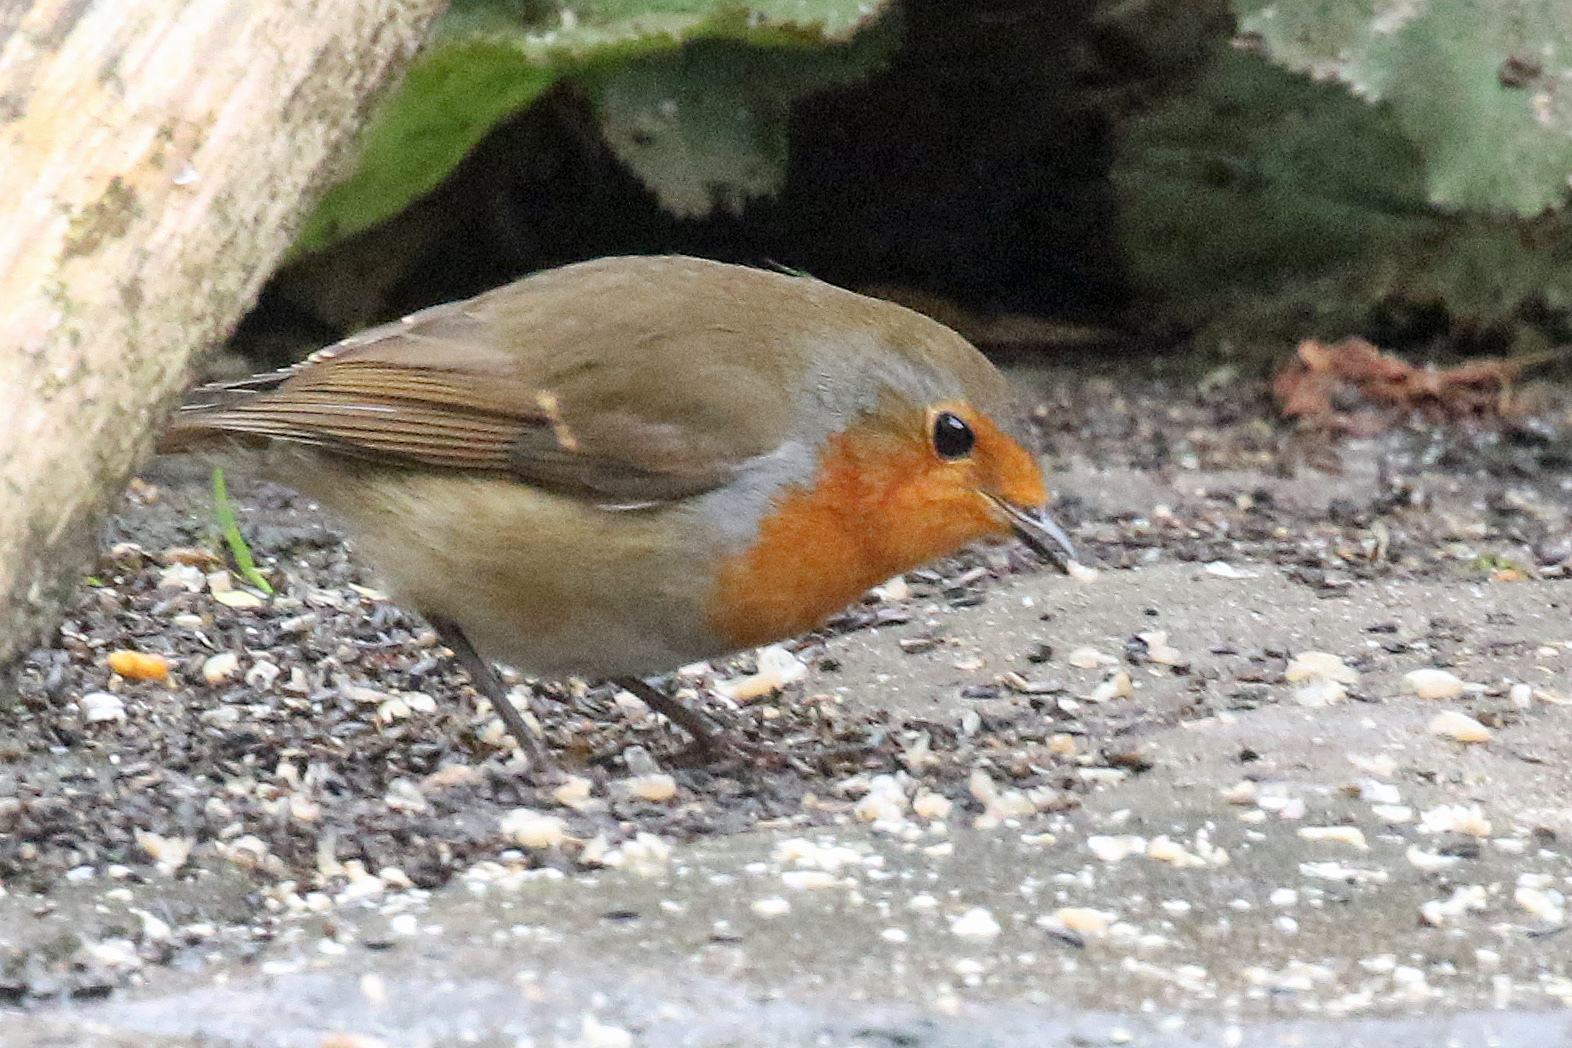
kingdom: Animalia
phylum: Chordata
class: Aves
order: Passeriformes
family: Muscicapidae
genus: Erithacus
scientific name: Erithacus rubecula
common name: European robin
